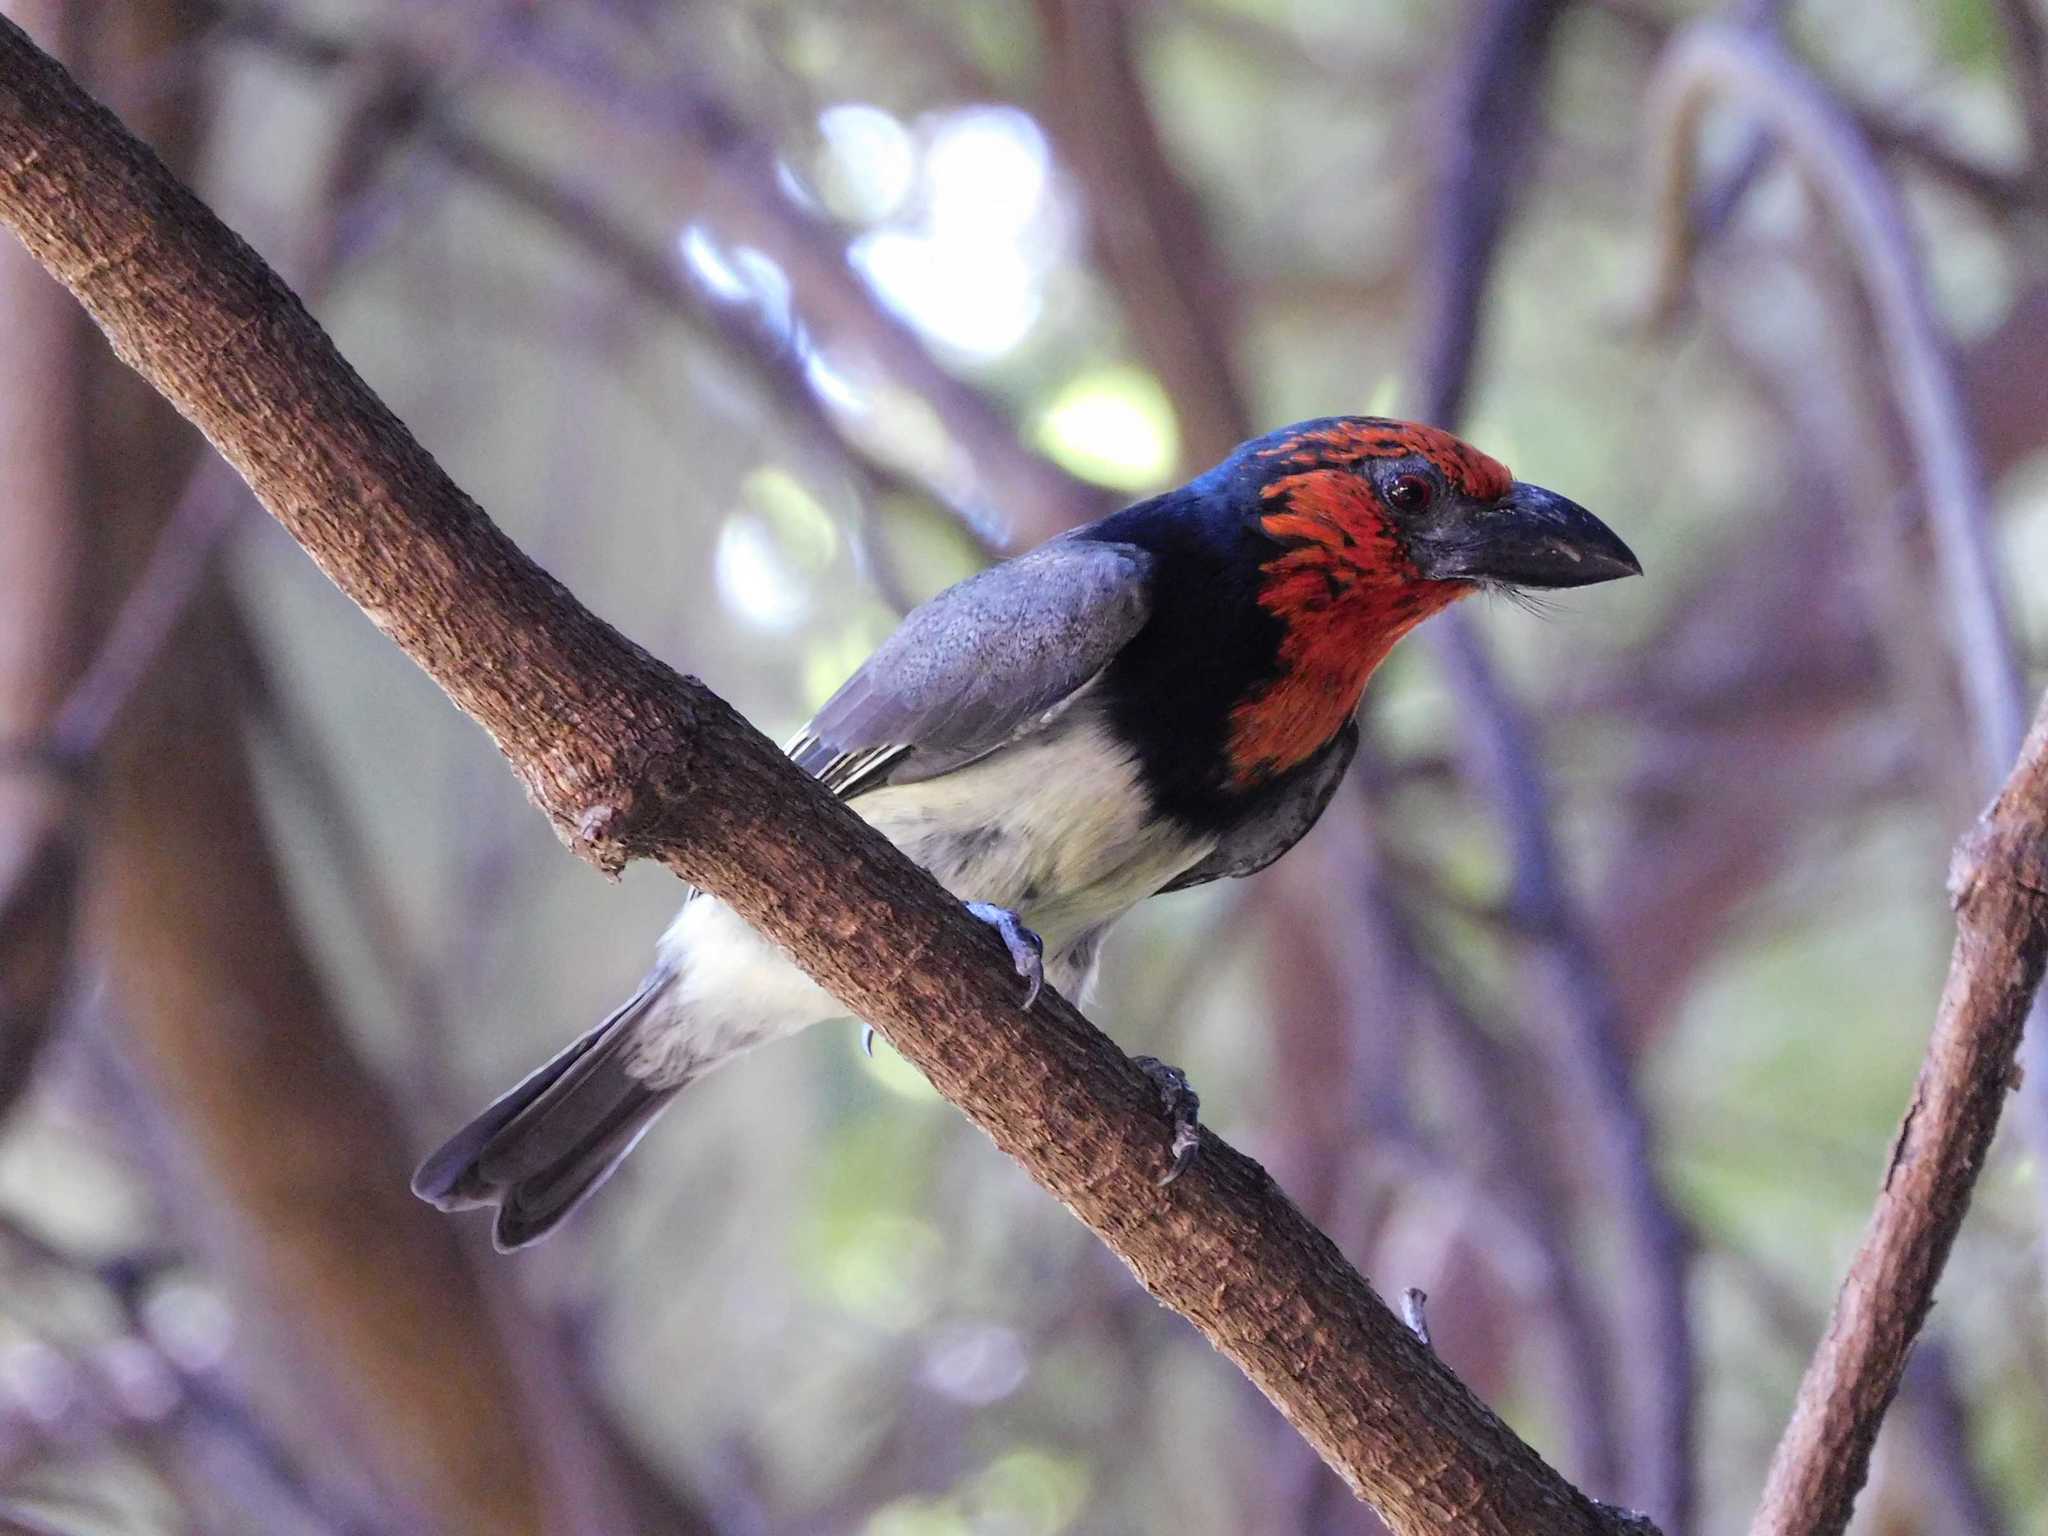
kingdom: Animalia
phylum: Chordata
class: Aves
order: Piciformes
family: Lybiidae
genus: Lybius
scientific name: Lybius torquatus
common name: Black-collared barbet
